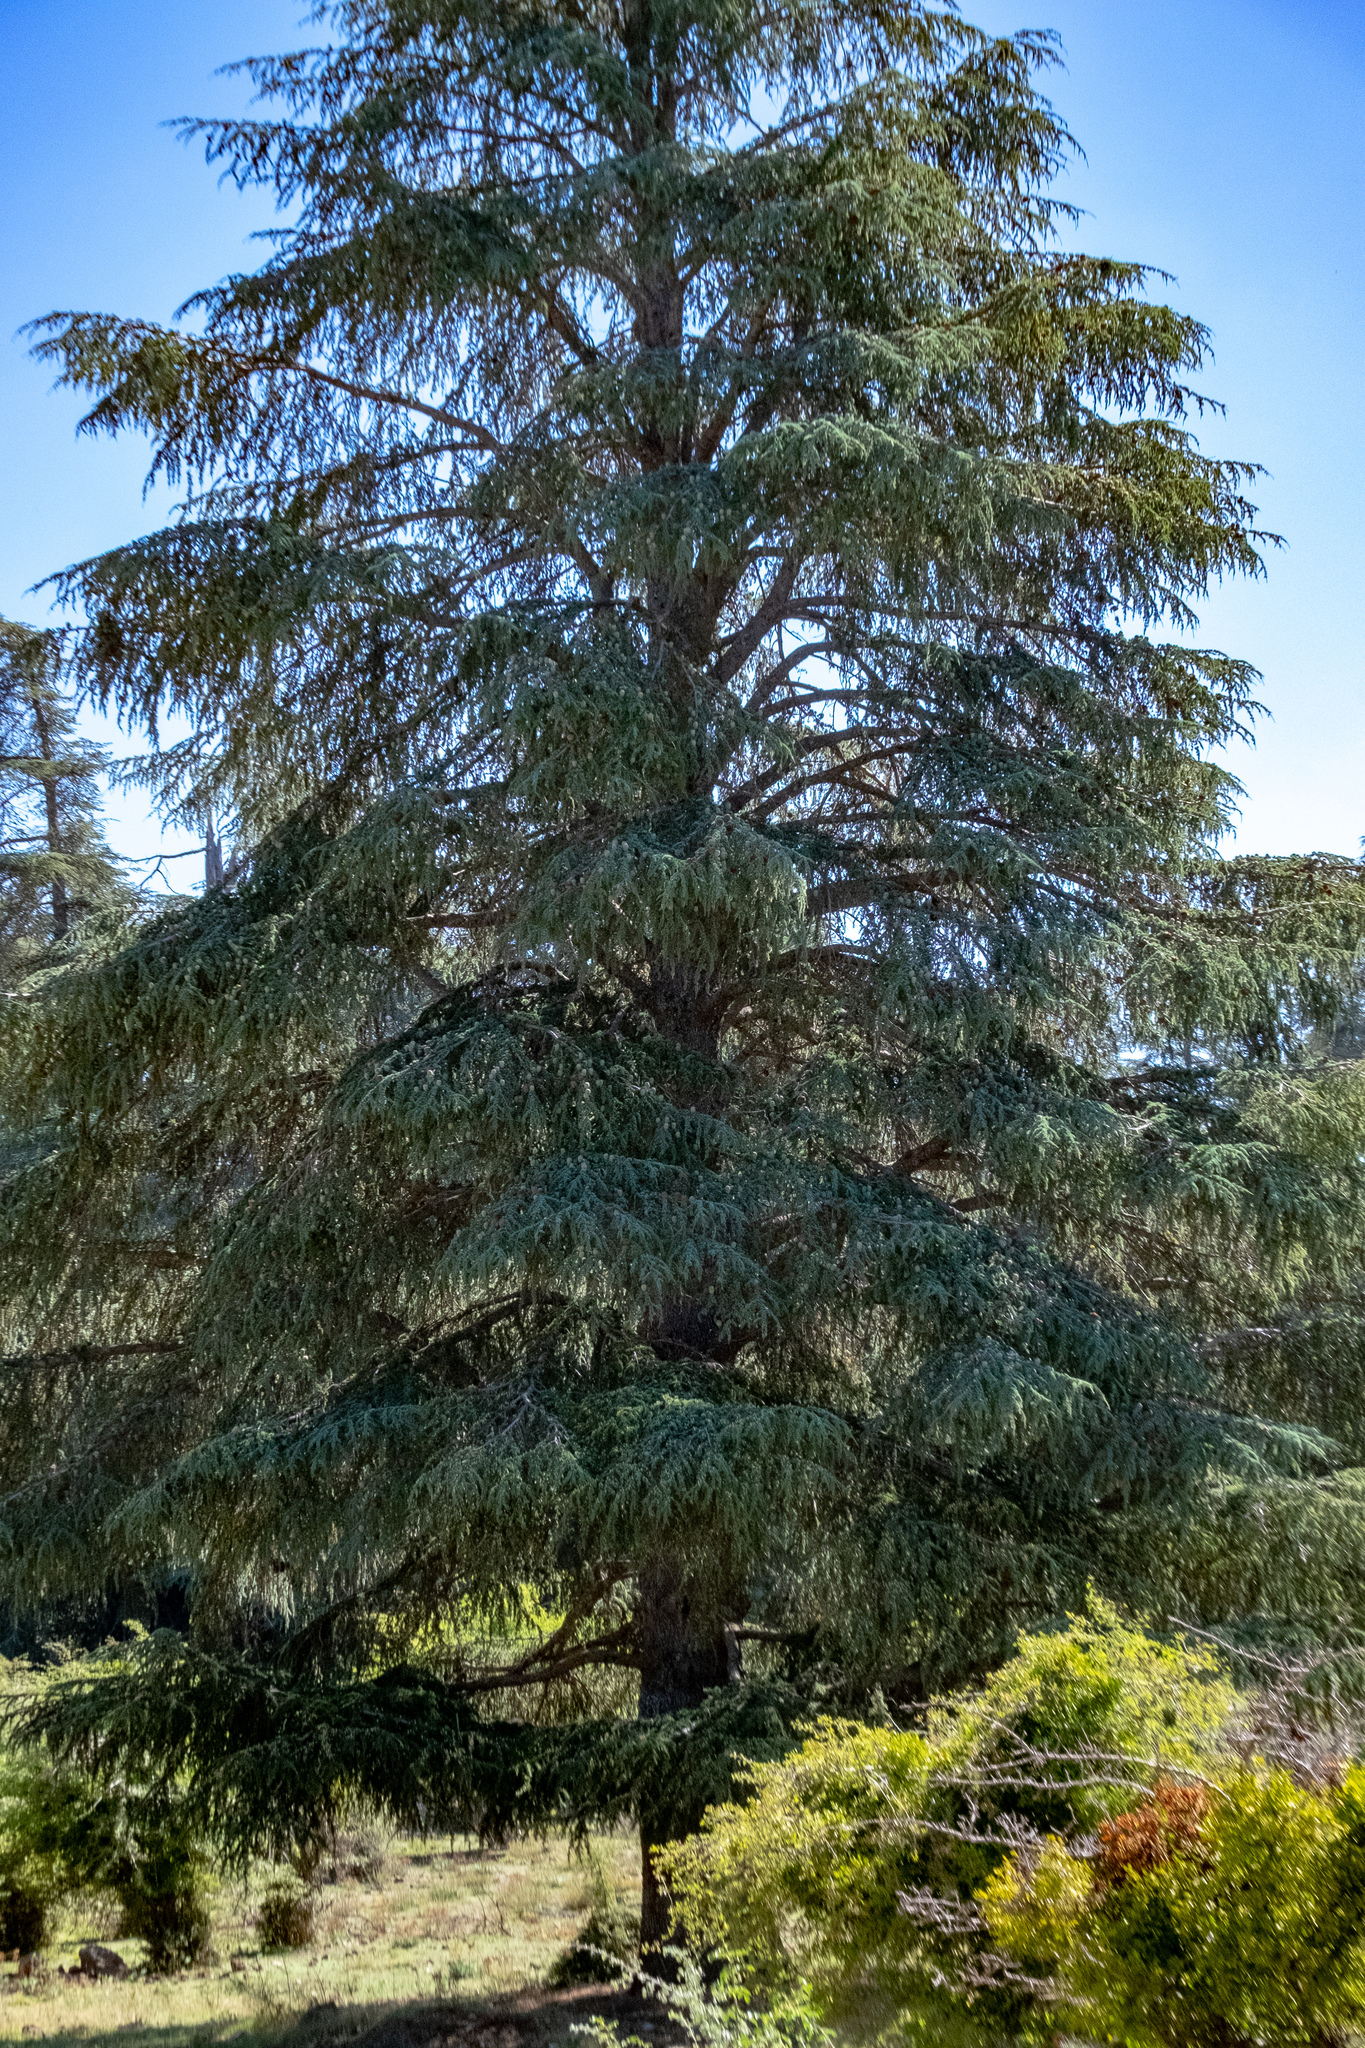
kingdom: Plantae
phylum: Tracheophyta
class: Pinopsida
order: Pinales
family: Pinaceae
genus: Cedrus
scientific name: Cedrus atlantica
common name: Atlas cedar
